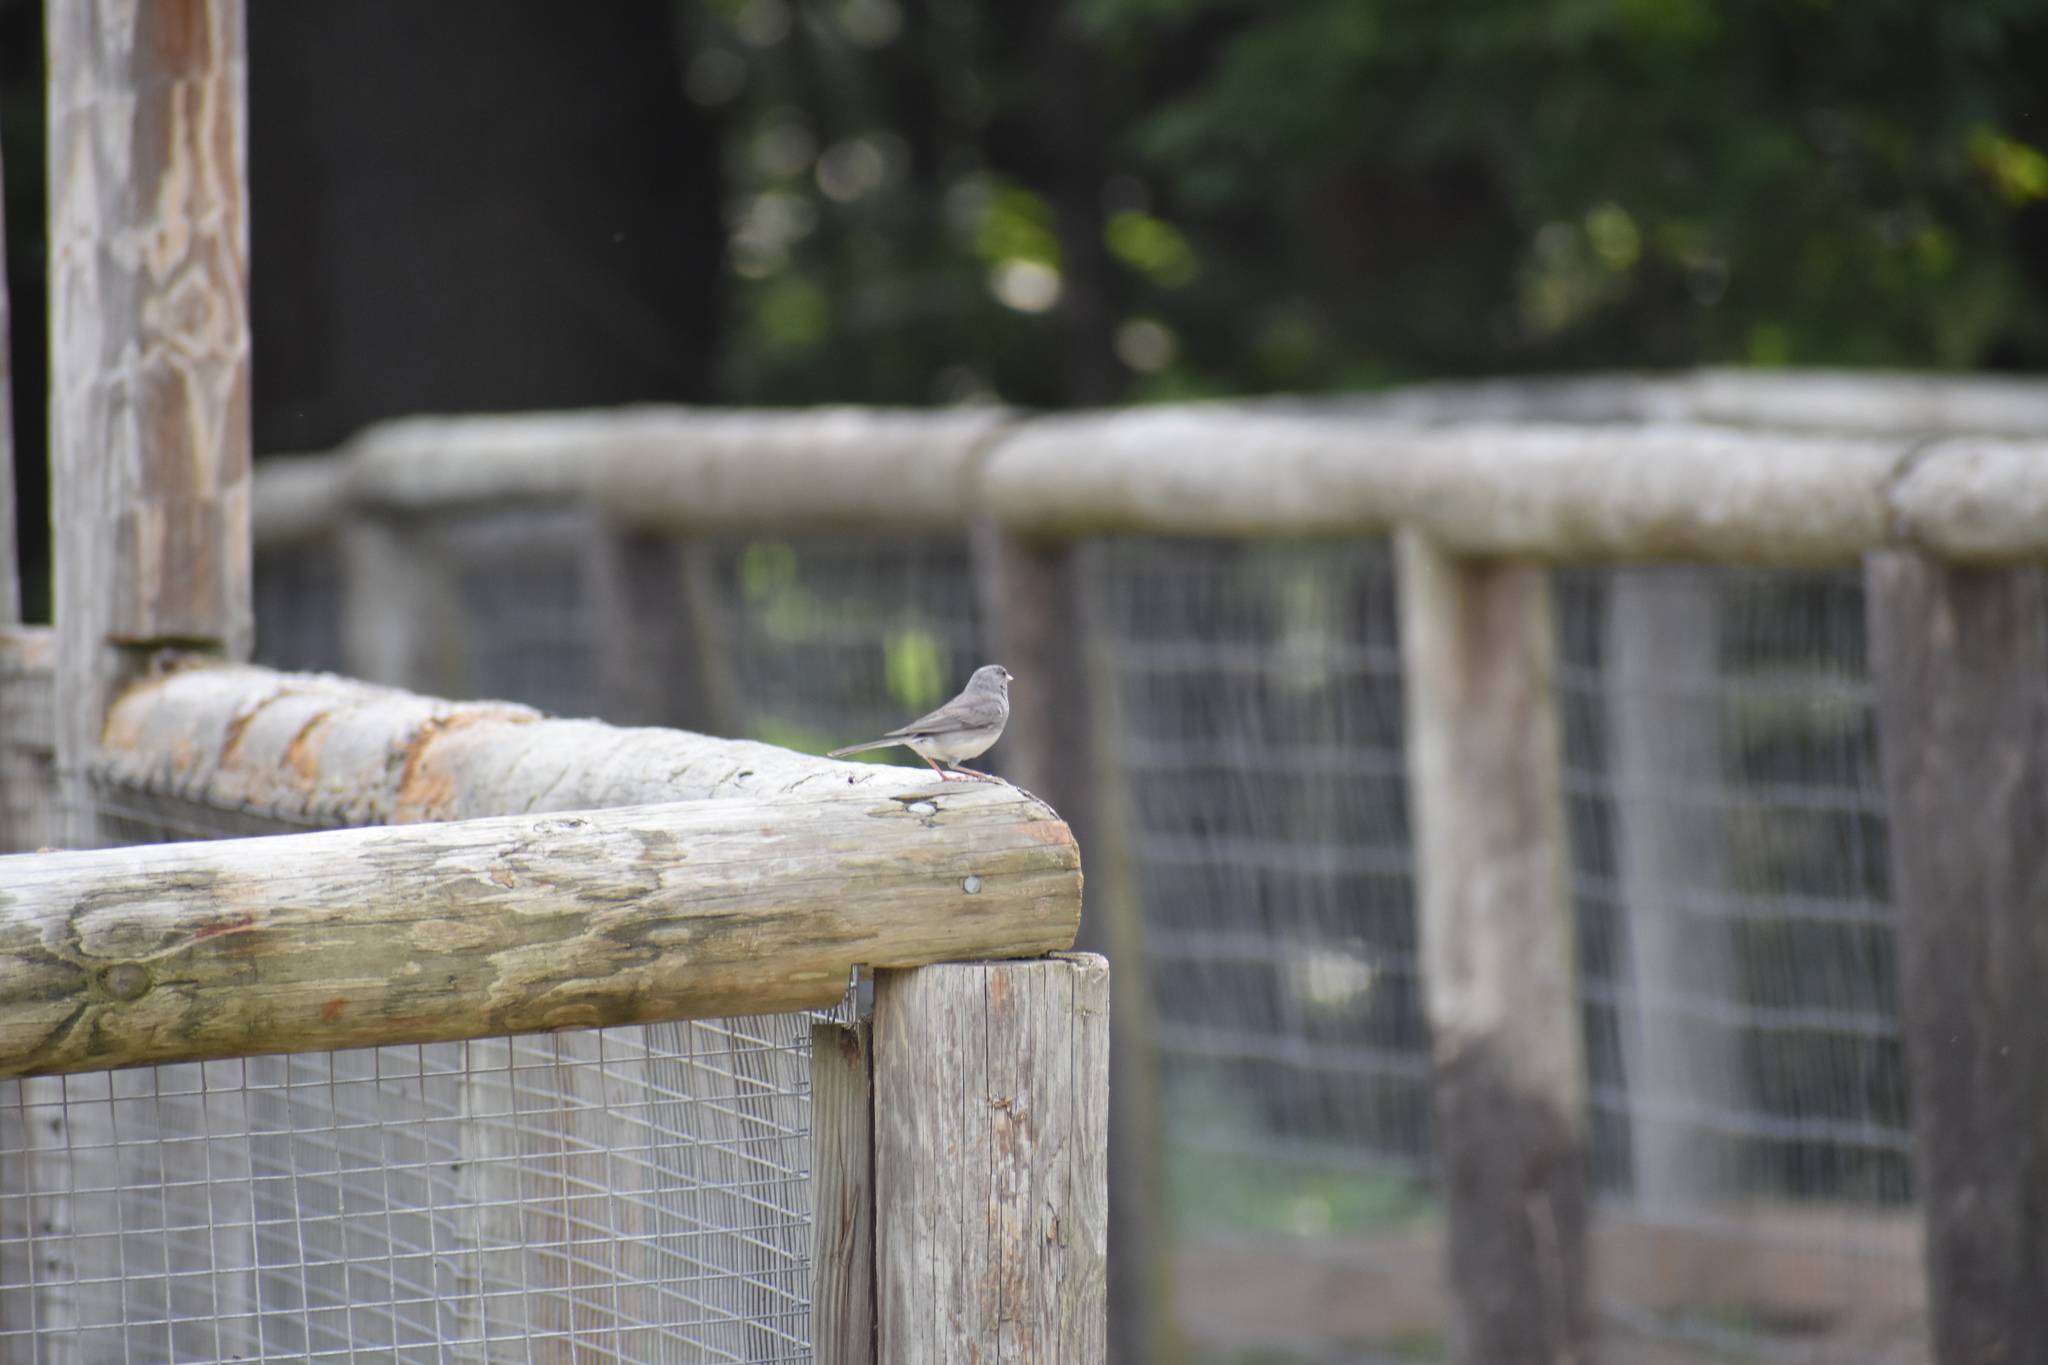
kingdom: Animalia
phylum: Chordata
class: Aves
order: Passeriformes
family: Passerellidae
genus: Junco
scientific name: Junco hyemalis
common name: Dark-eyed junco
